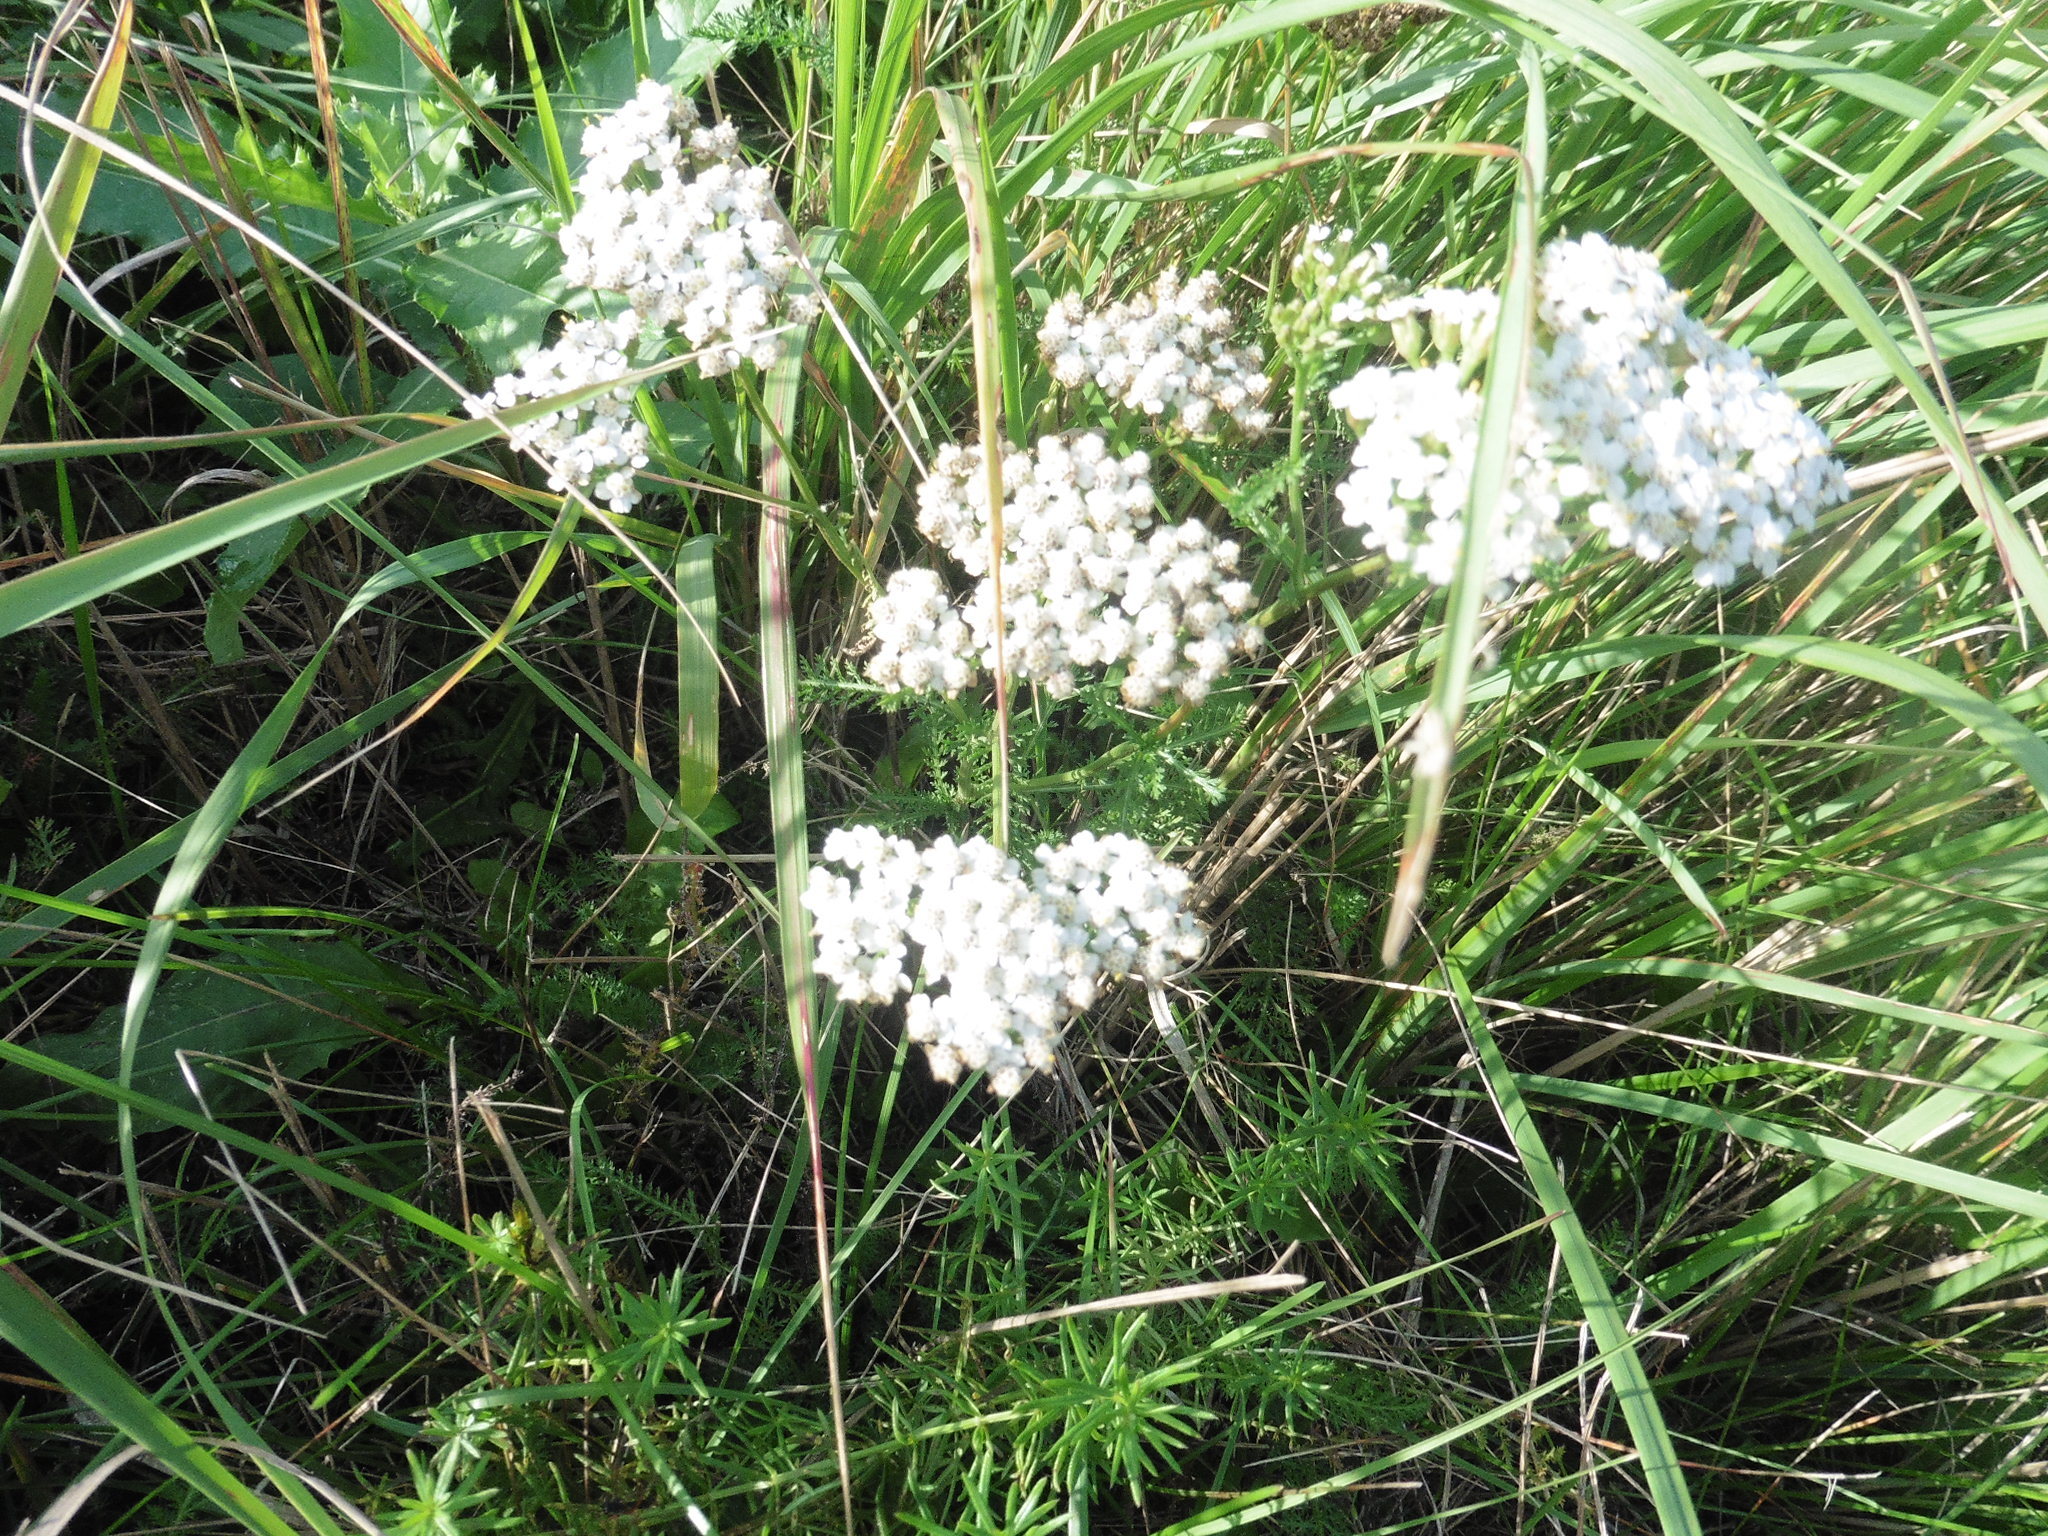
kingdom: Plantae
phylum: Tracheophyta
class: Magnoliopsida
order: Asterales
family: Asteraceae
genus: Achillea
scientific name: Achillea millefolium
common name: Yarrow
